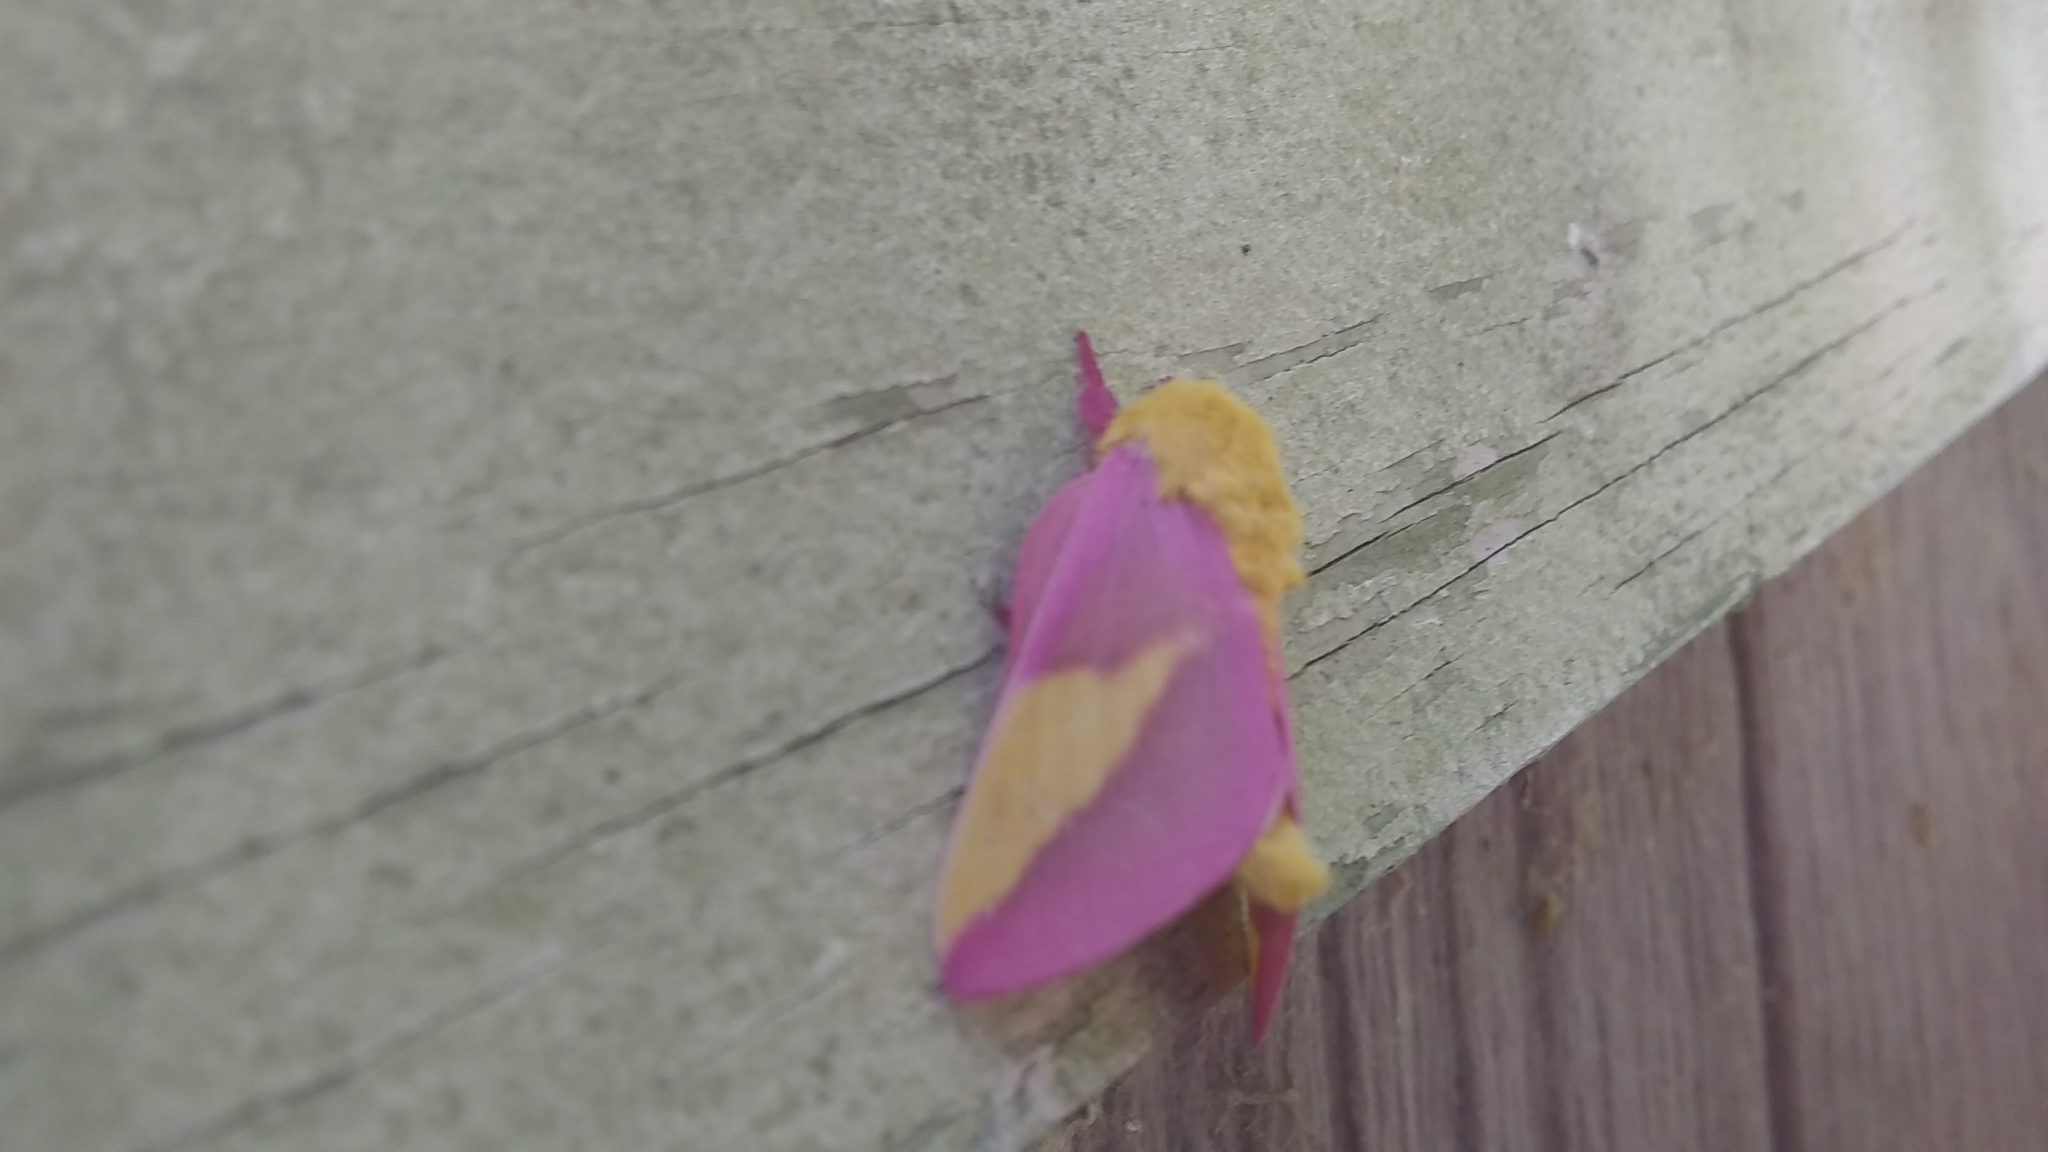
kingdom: Animalia
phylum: Arthropoda
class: Insecta
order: Lepidoptera
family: Saturniidae
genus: Dryocampa
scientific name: Dryocampa rubicunda
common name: Rosy maple moth
